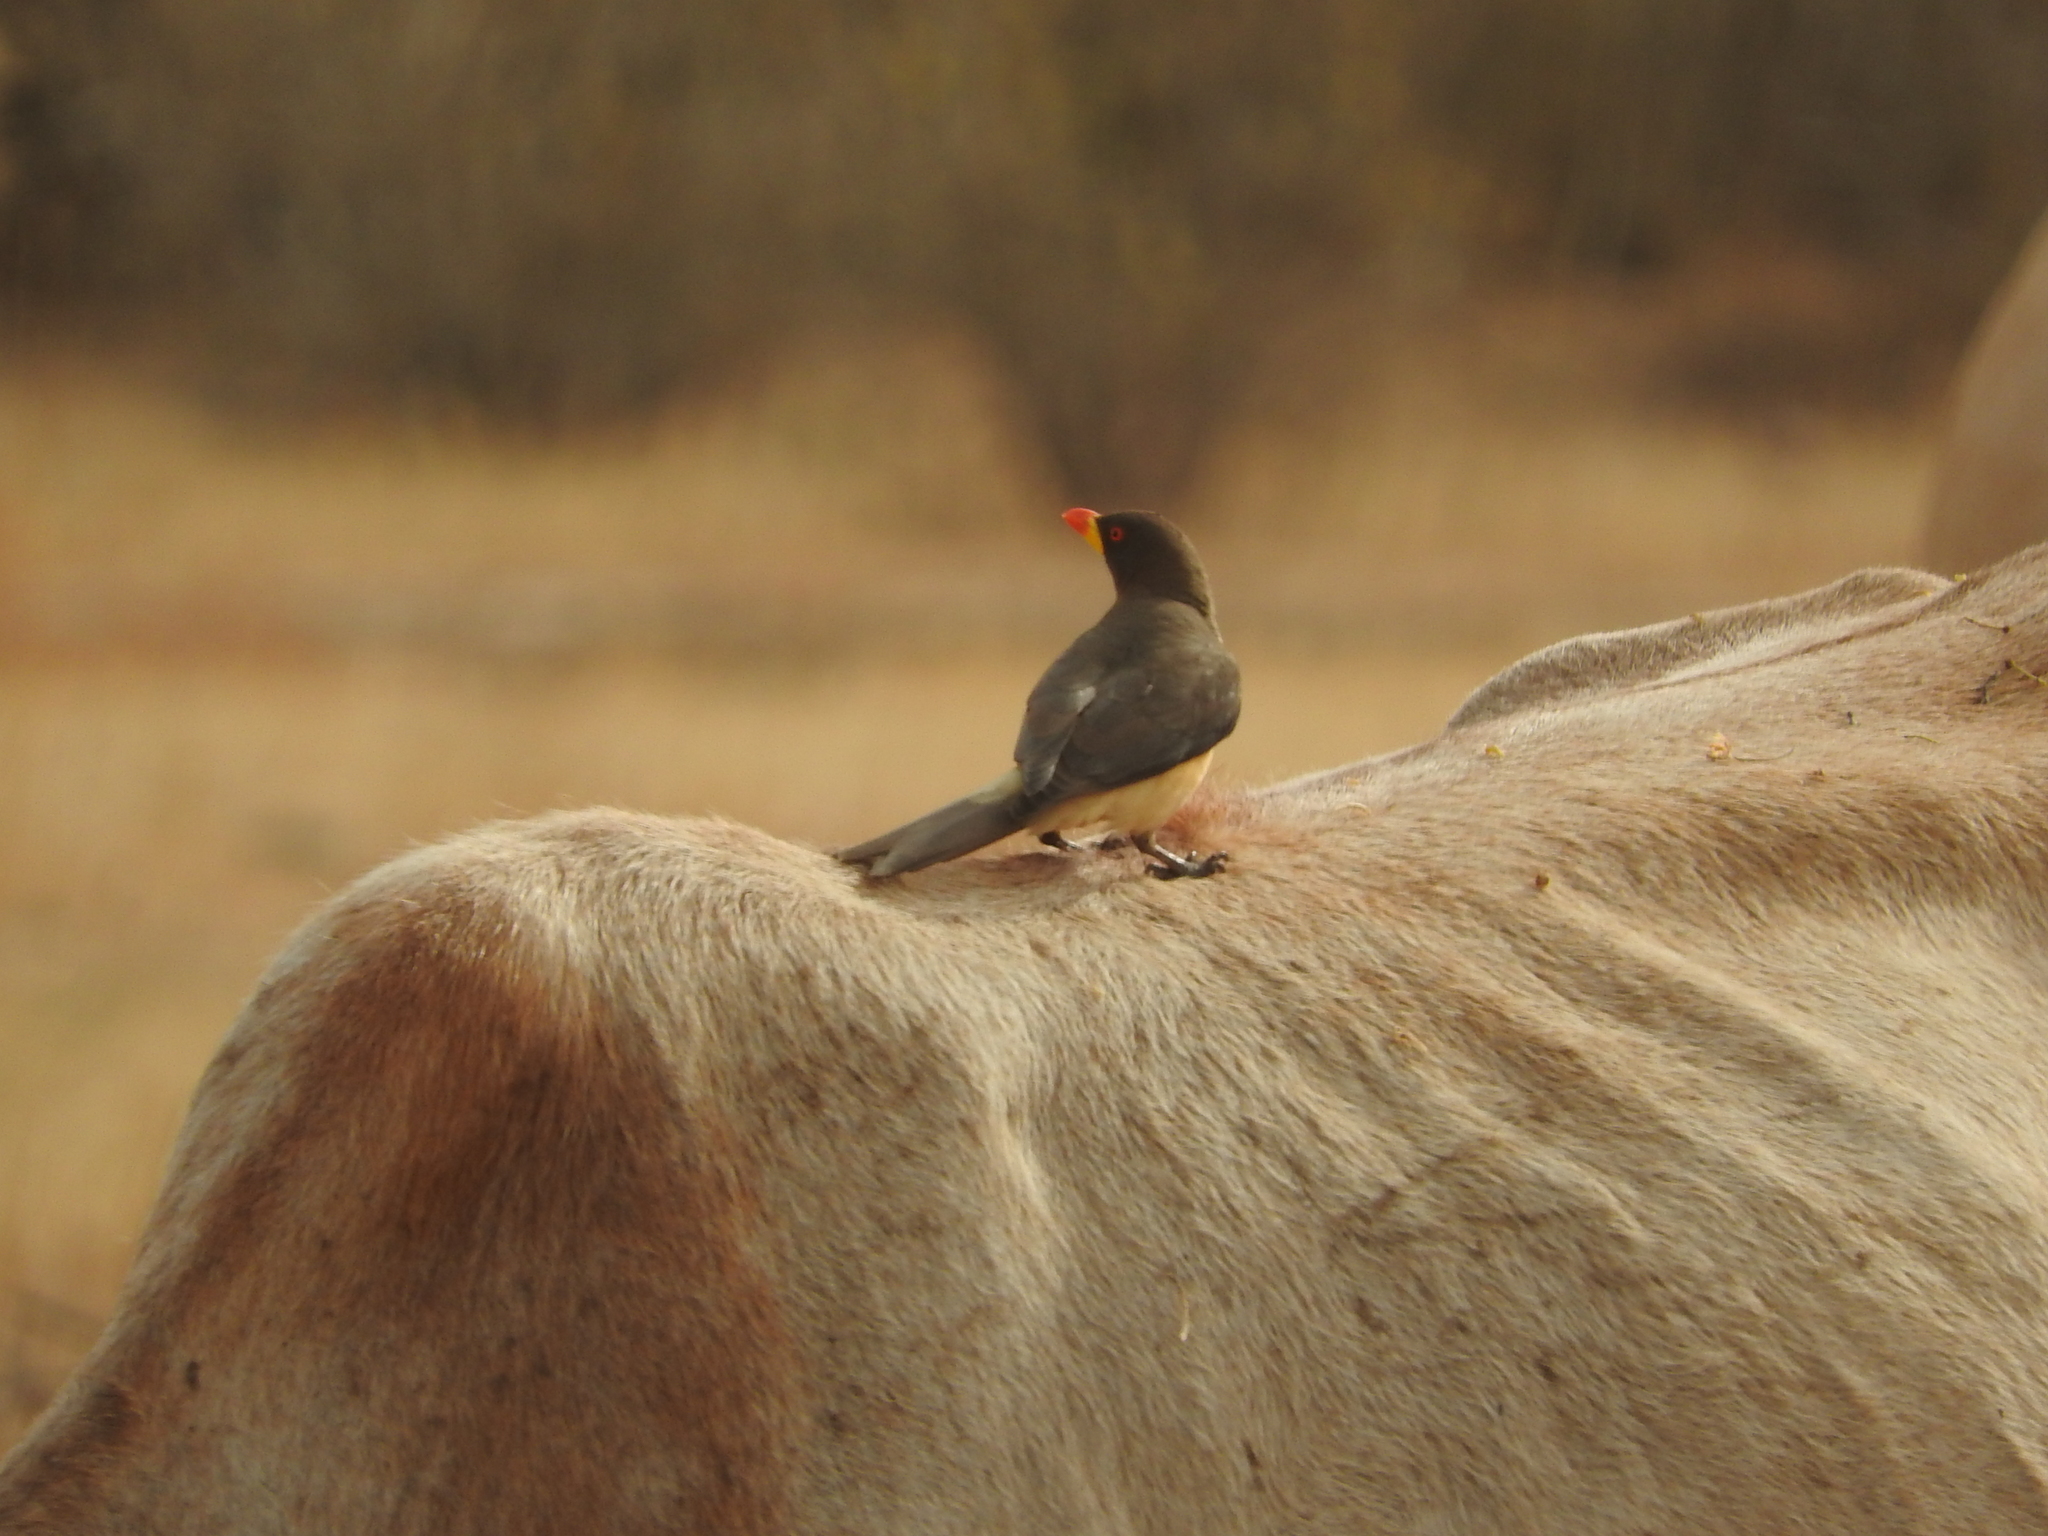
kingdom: Animalia
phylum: Chordata
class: Aves
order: Passeriformes
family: Buphagidae
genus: Buphagus
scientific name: Buphagus africanus
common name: Yellow-billed oxpecker
